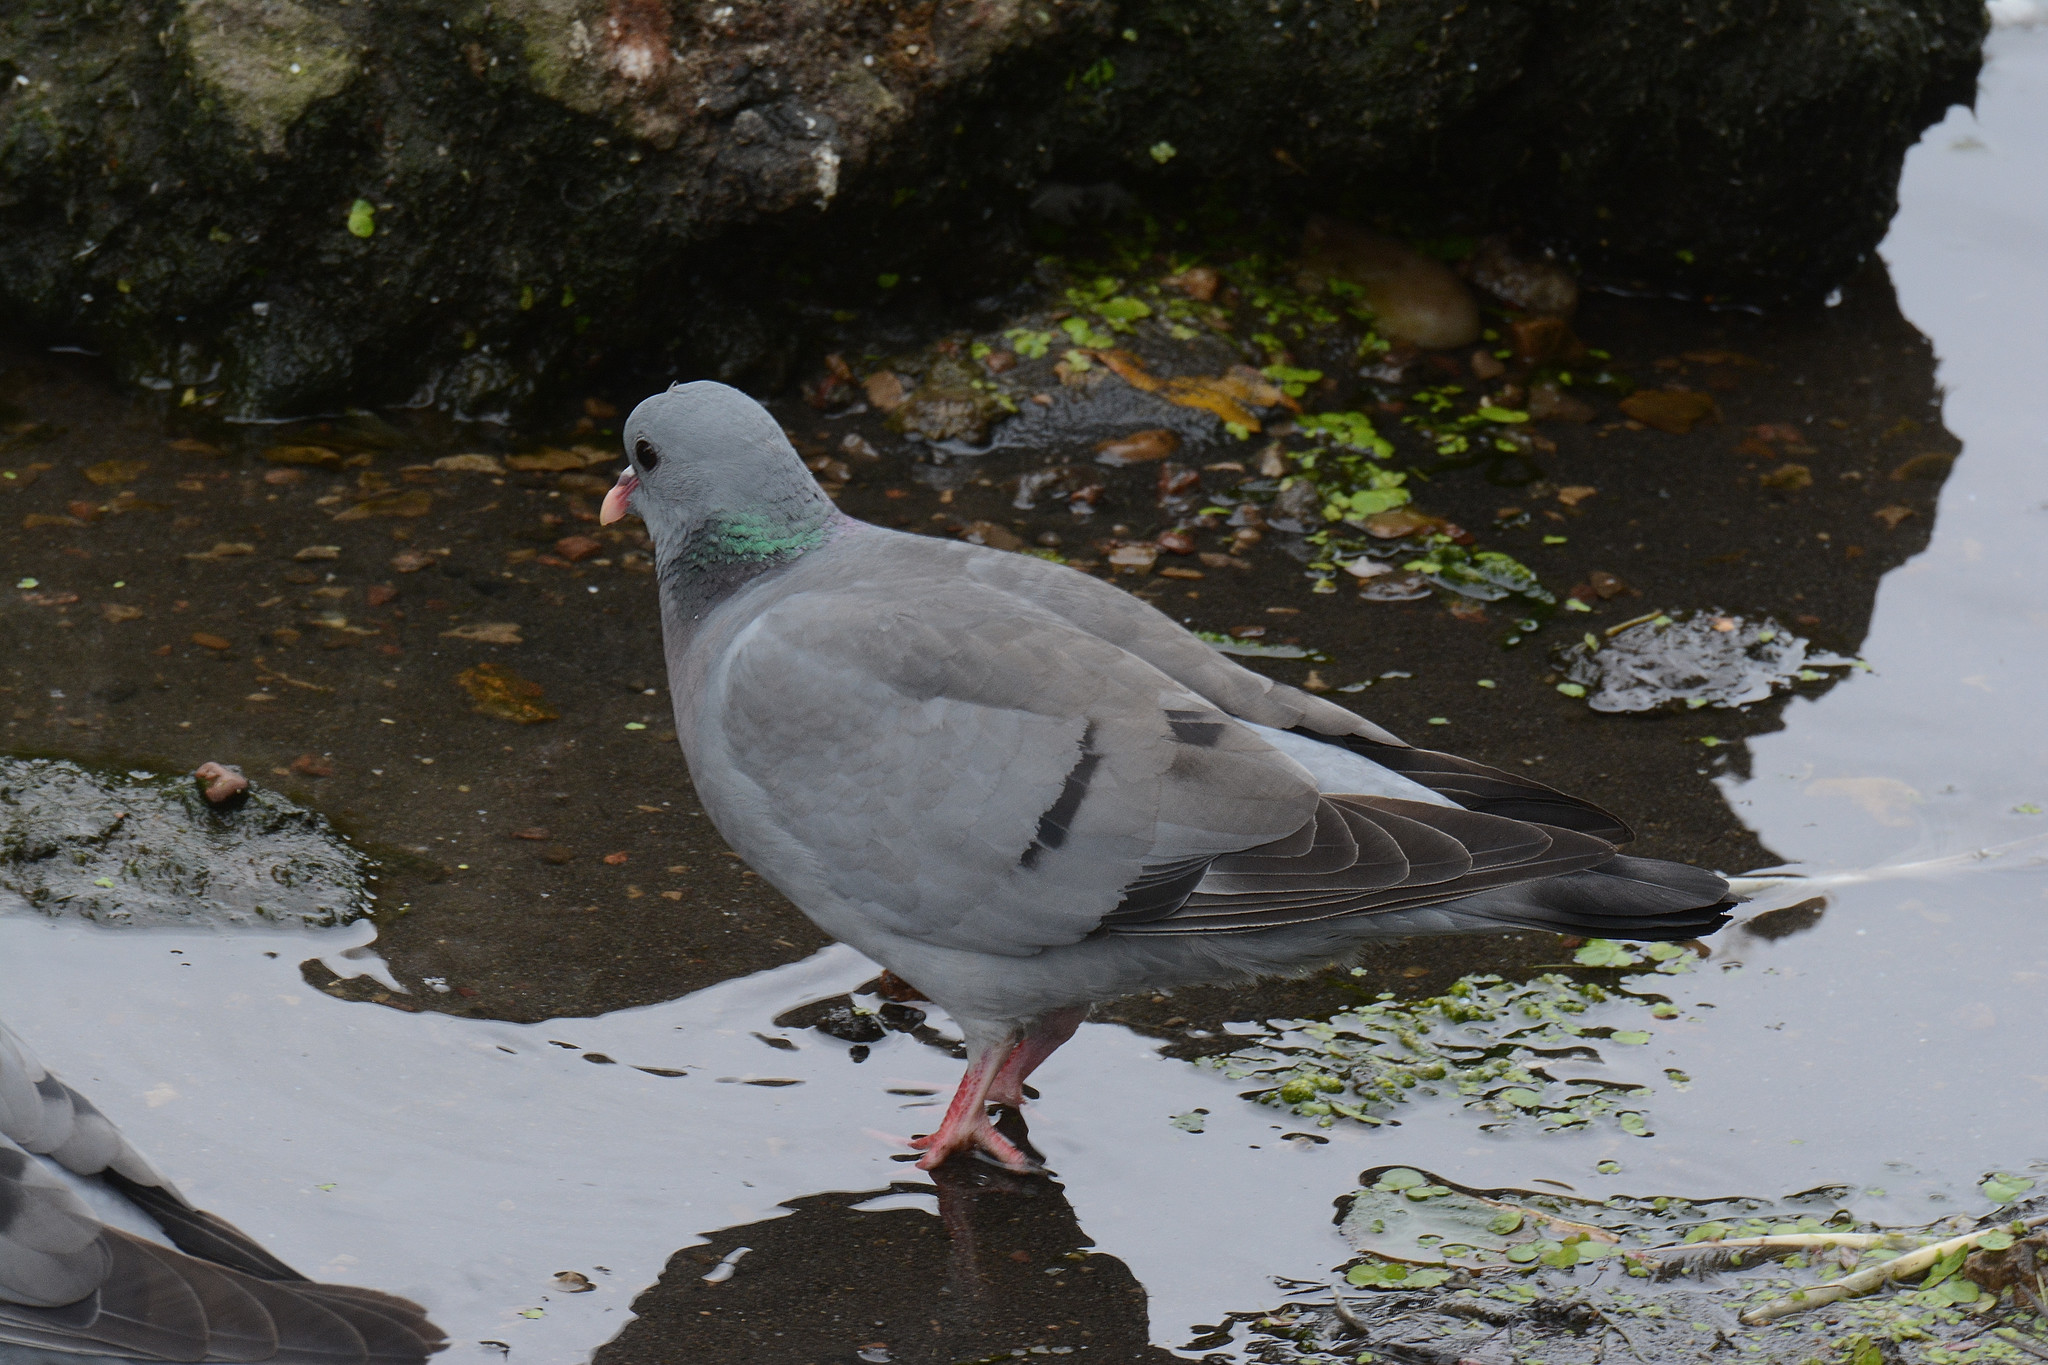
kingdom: Animalia
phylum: Chordata
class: Aves
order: Columbiformes
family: Columbidae
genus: Columba
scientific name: Columba oenas
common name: Stock dove
